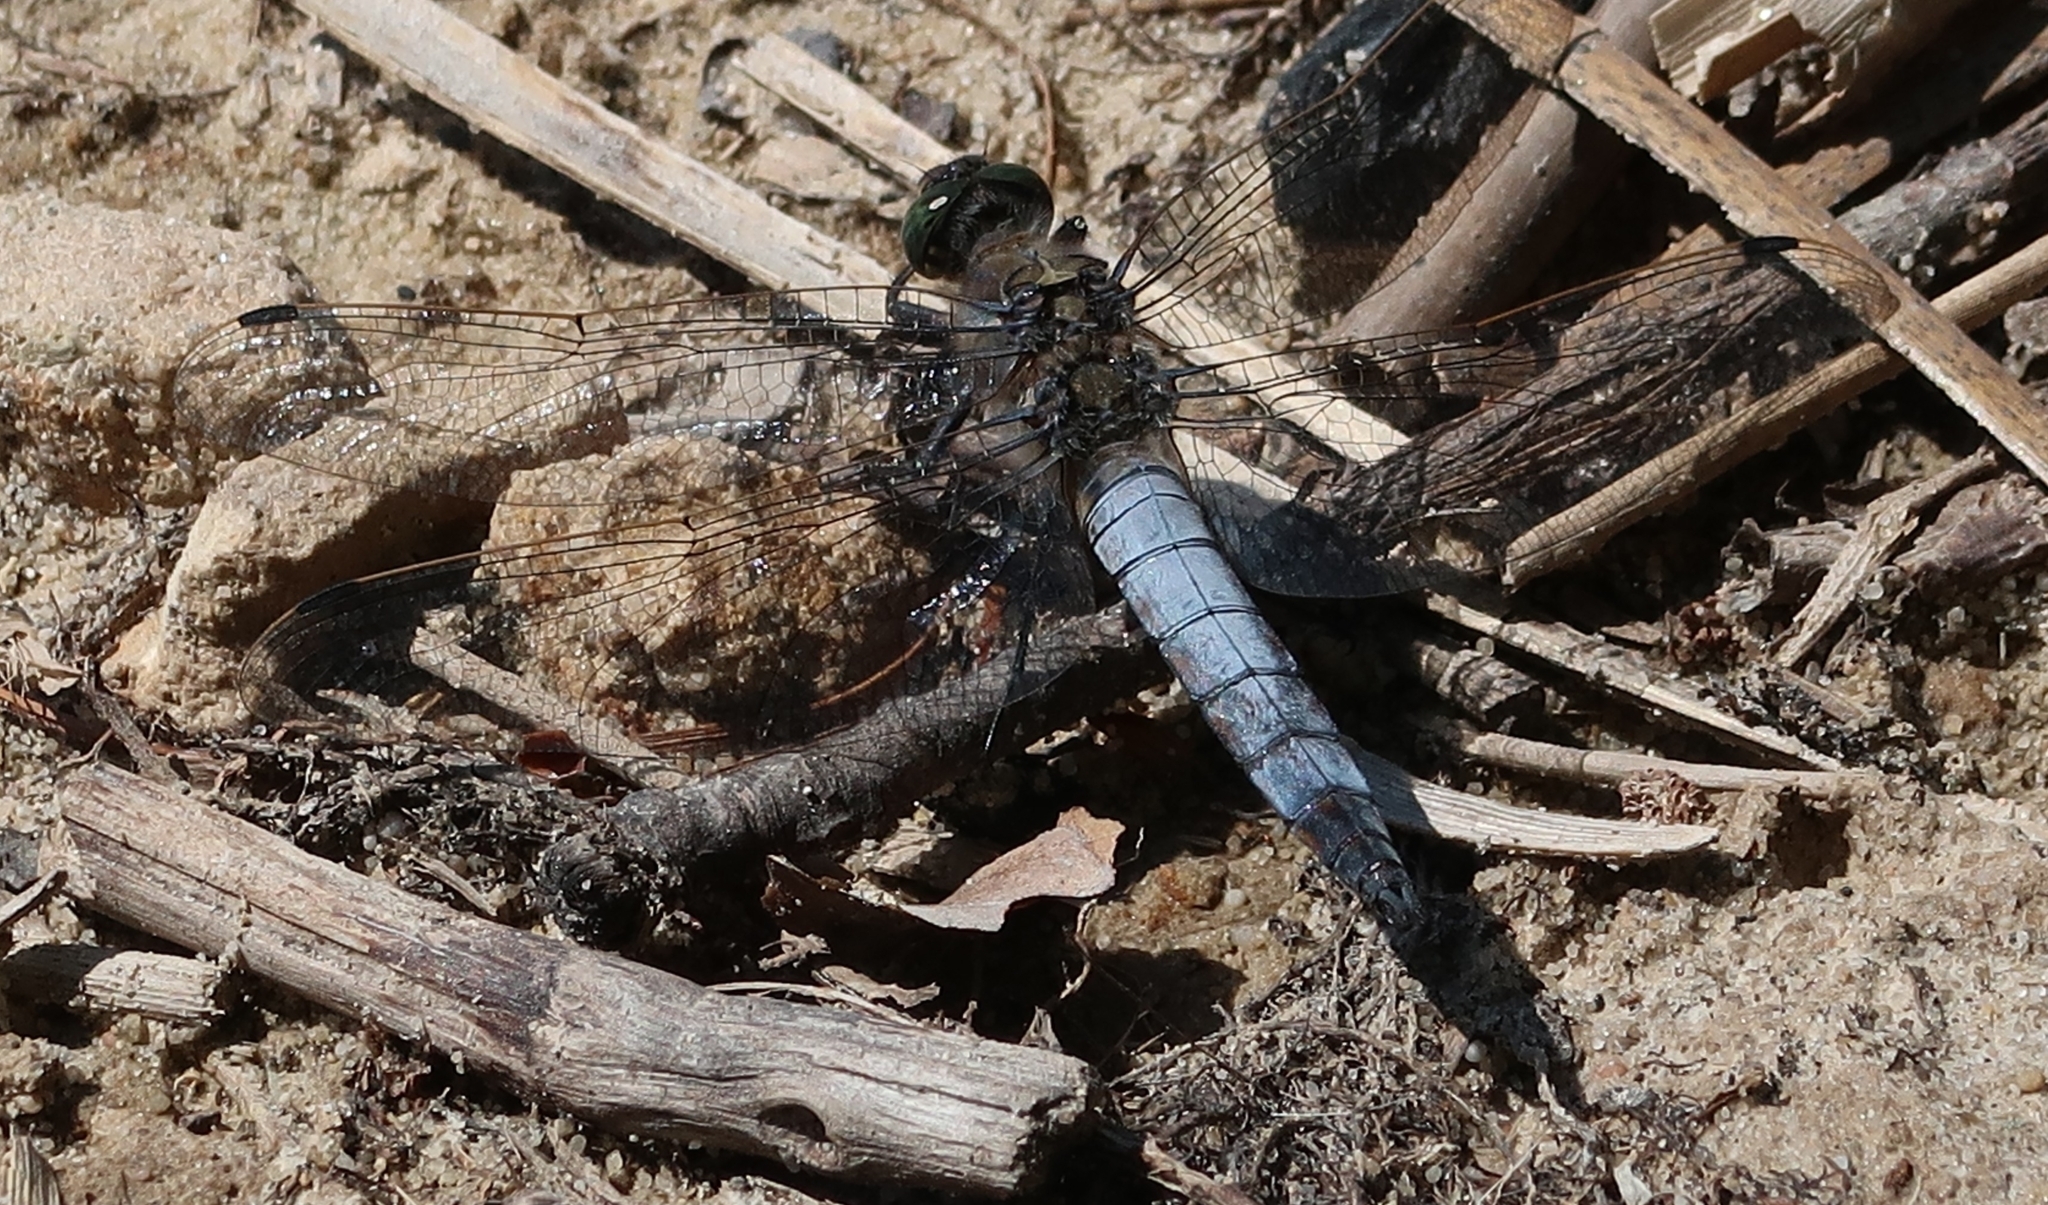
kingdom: Animalia
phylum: Arthropoda
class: Insecta
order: Odonata
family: Libellulidae
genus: Orthetrum
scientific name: Orthetrum cancellatum
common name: Black-tailed skimmer
